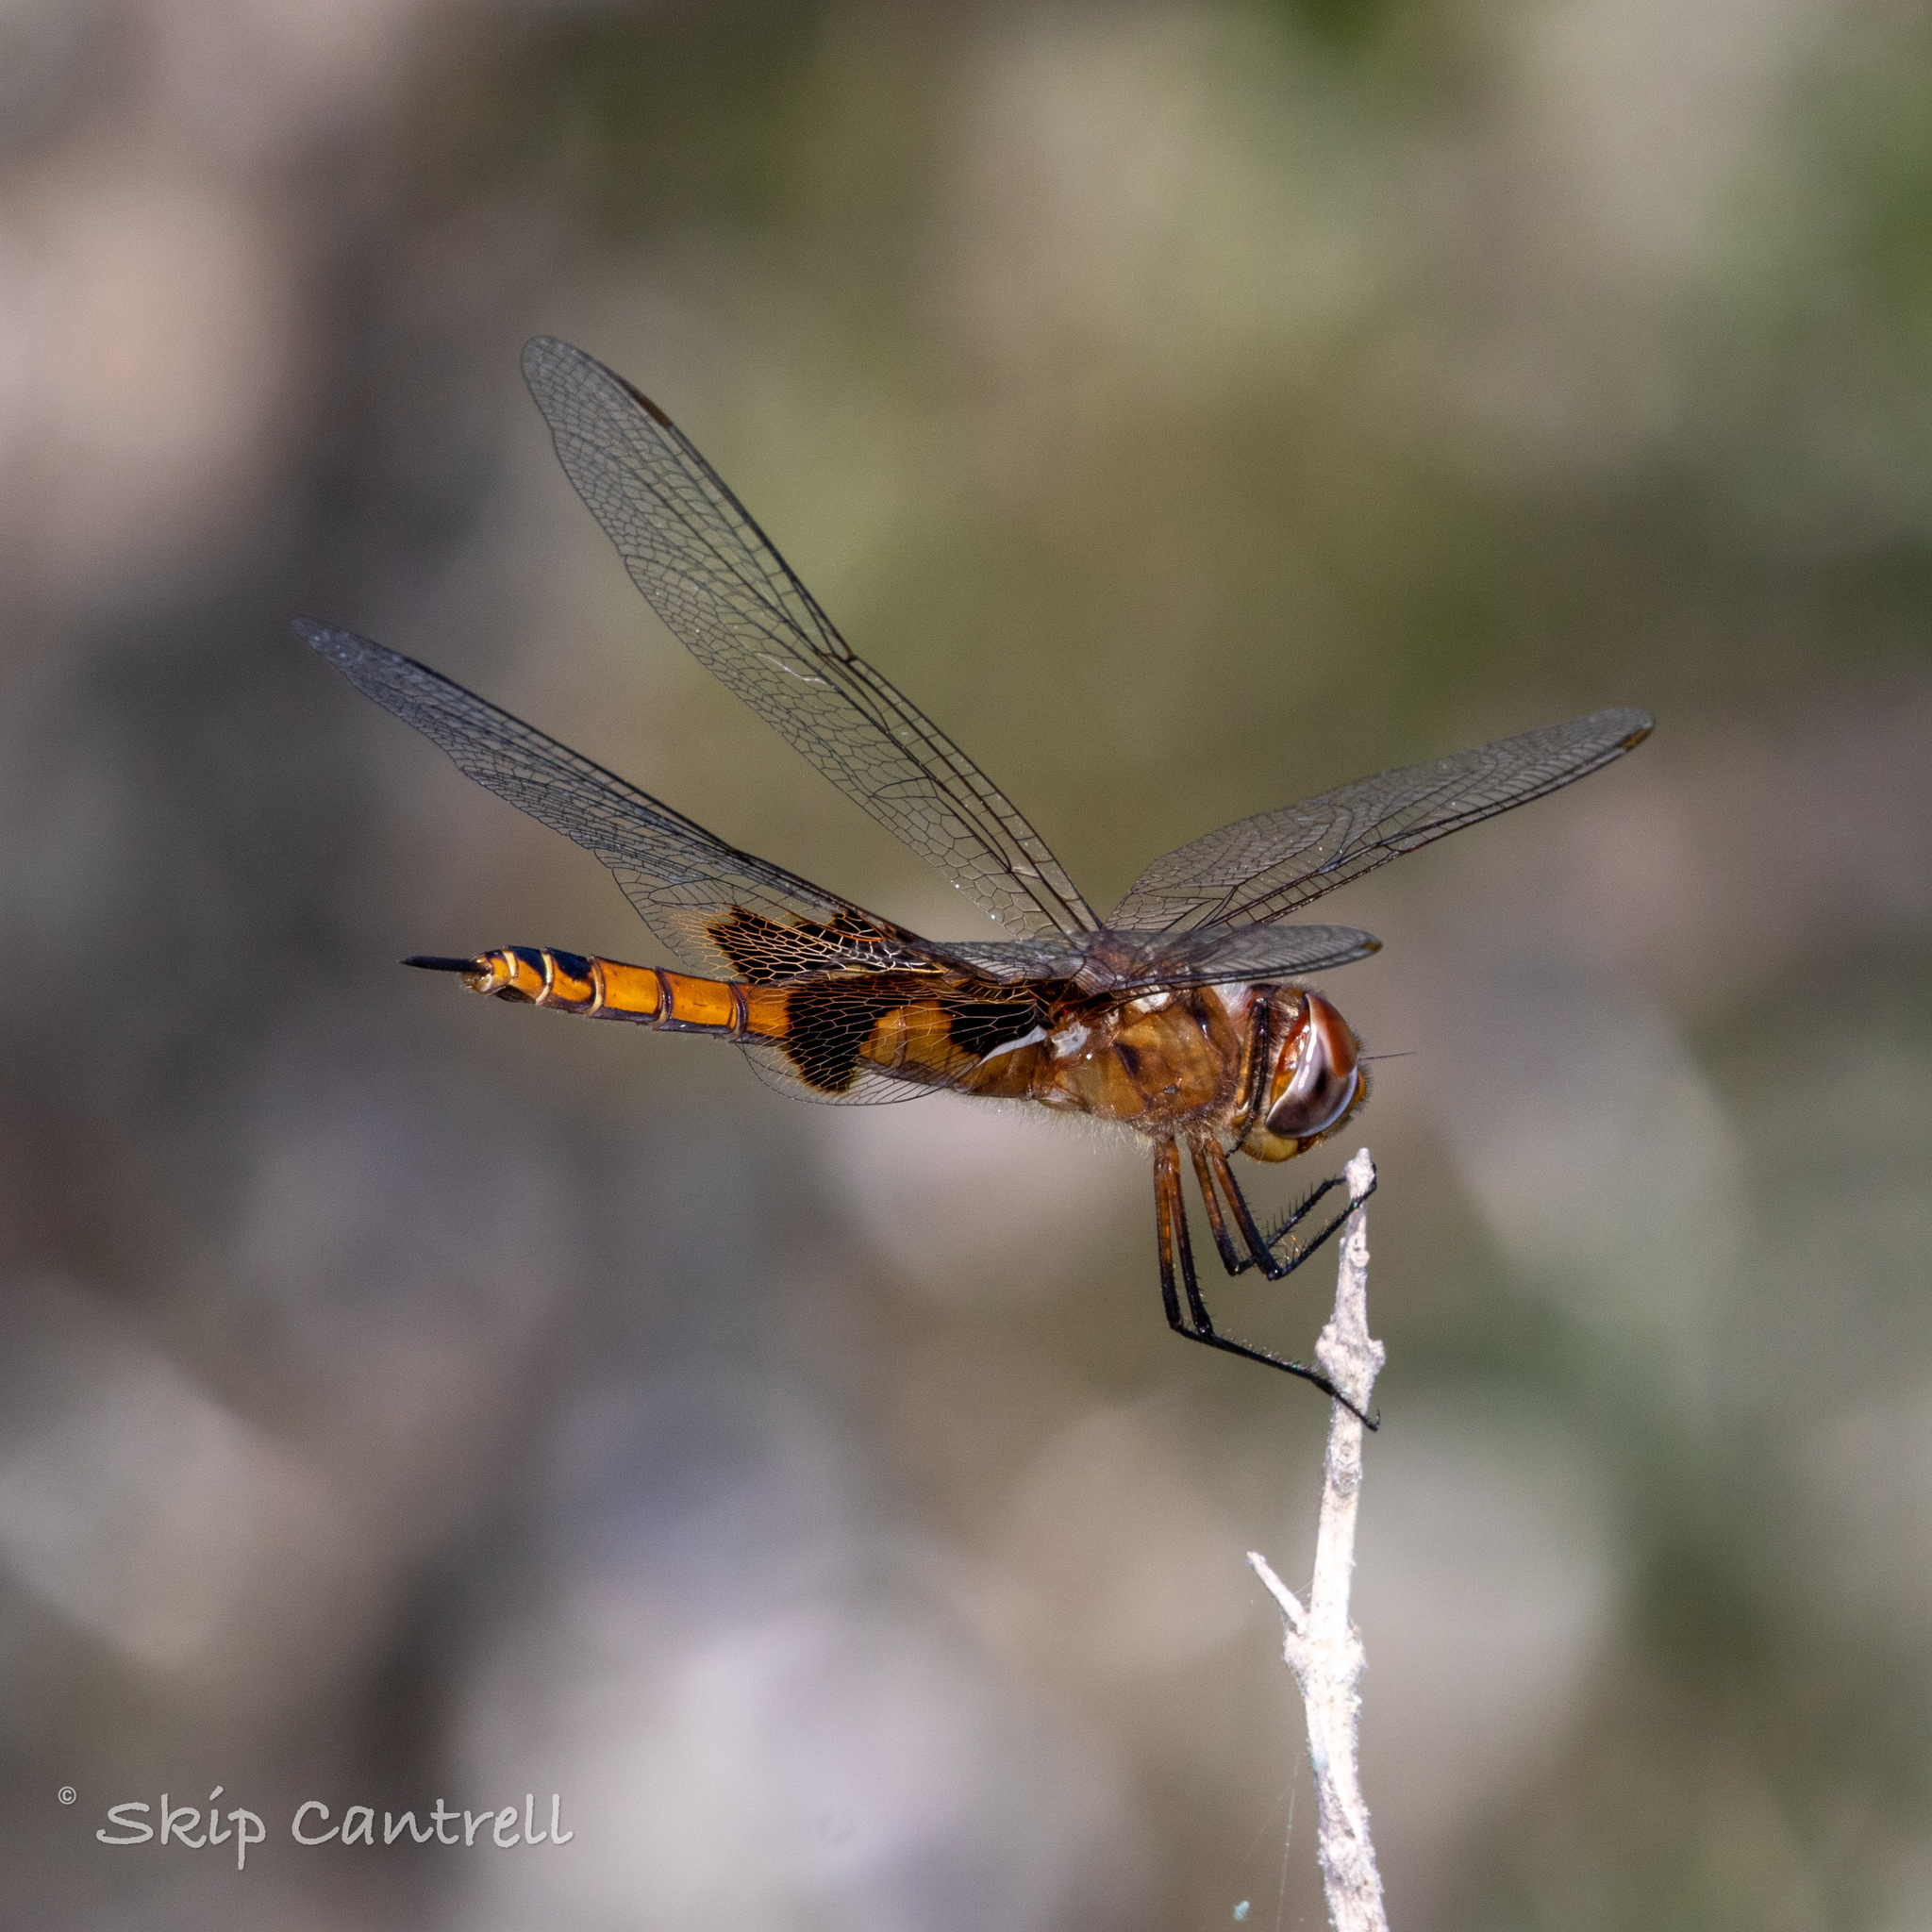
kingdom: Animalia
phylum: Arthropoda
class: Insecta
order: Odonata
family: Libellulidae
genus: Tramea
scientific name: Tramea onusta
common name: Red saddlebags
